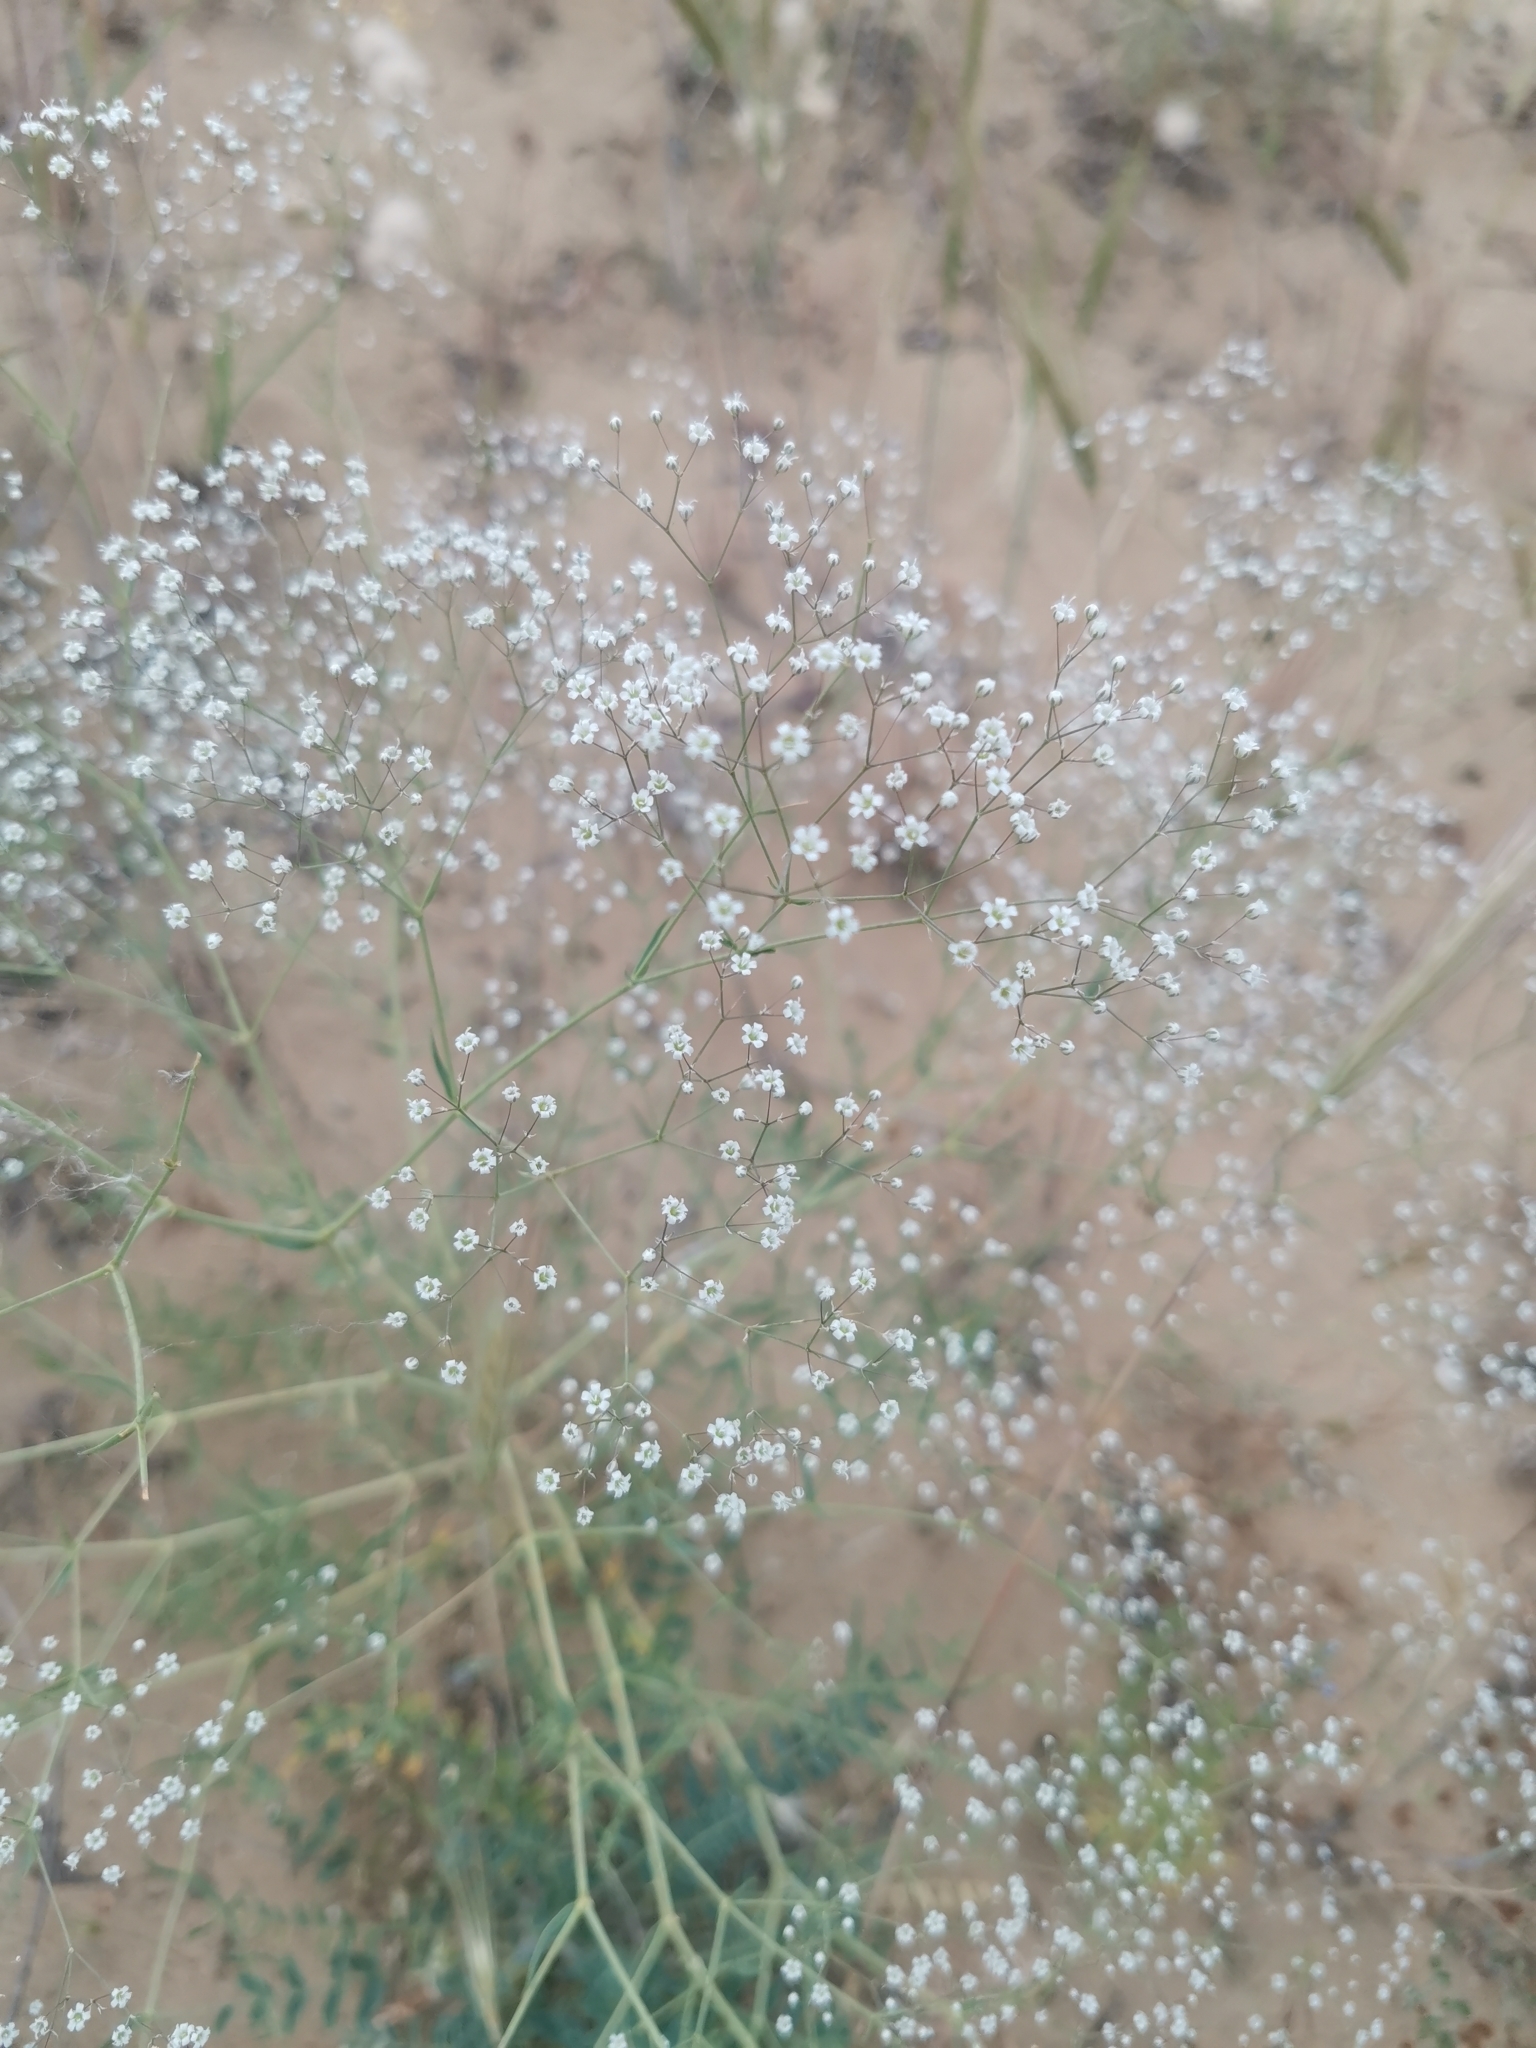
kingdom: Plantae
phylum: Tracheophyta
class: Magnoliopsida
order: Caryophyllales
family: Caryophyllaceae
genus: Gypsophila
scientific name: Gypsophila paniculata
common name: Baby's-breath
